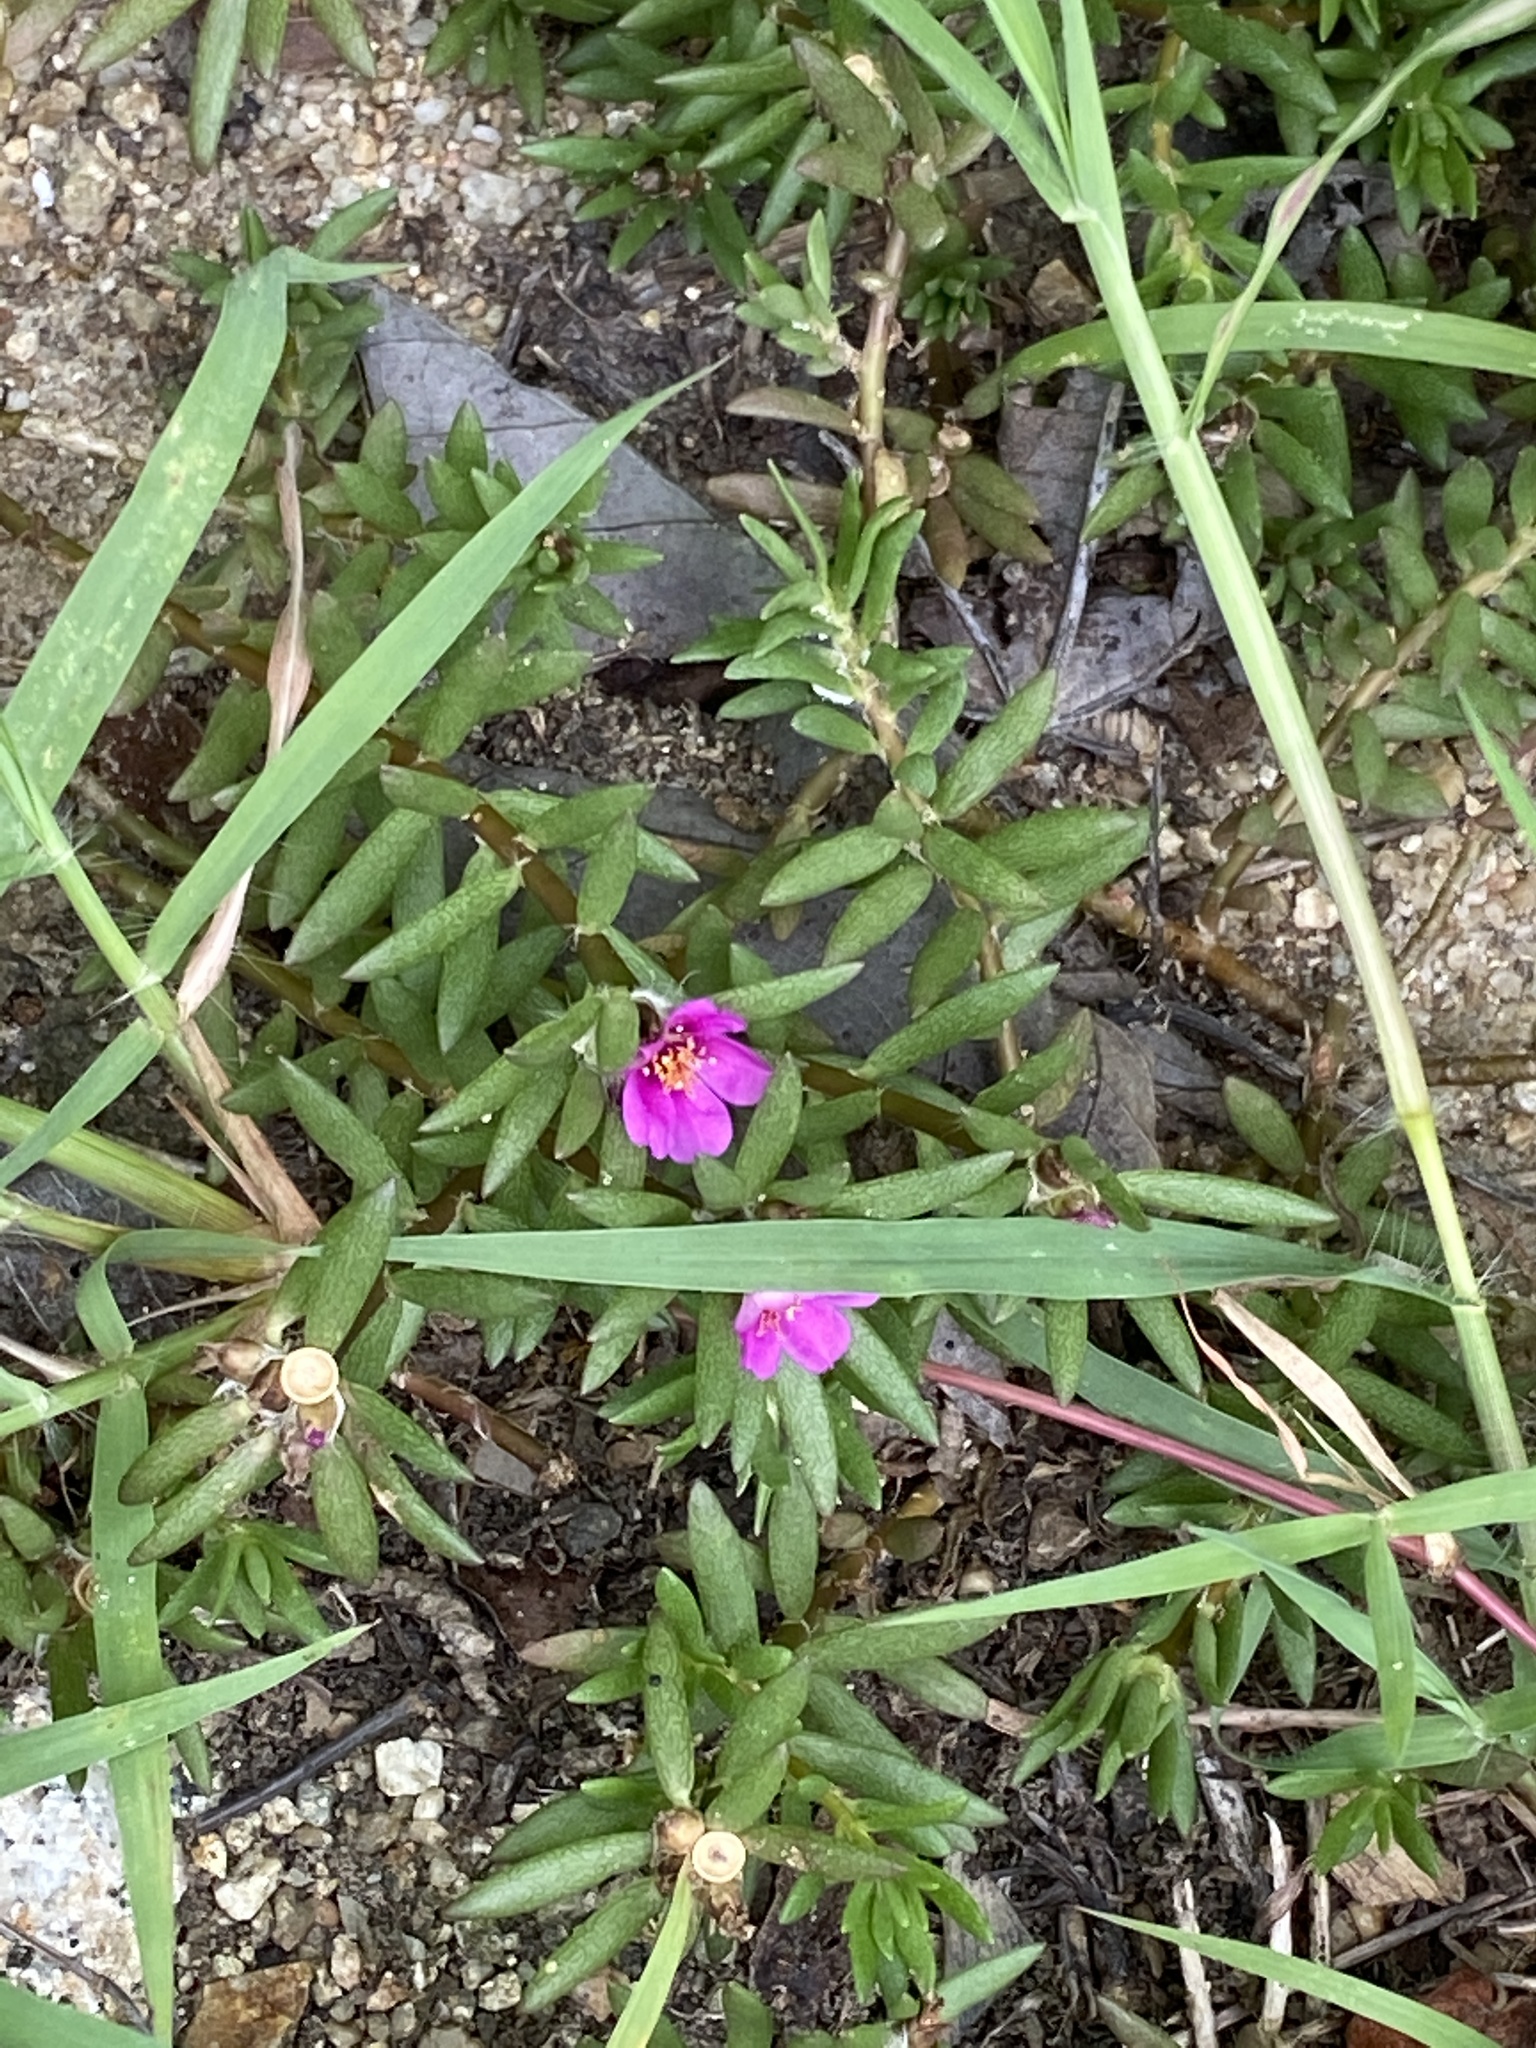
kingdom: Plantae
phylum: Tracheophyta
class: Magnoliopsida
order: Caryophyllales
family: Portulacaceae
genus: Portulaca
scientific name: Portulaca pilosa
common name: Kiss me quick
